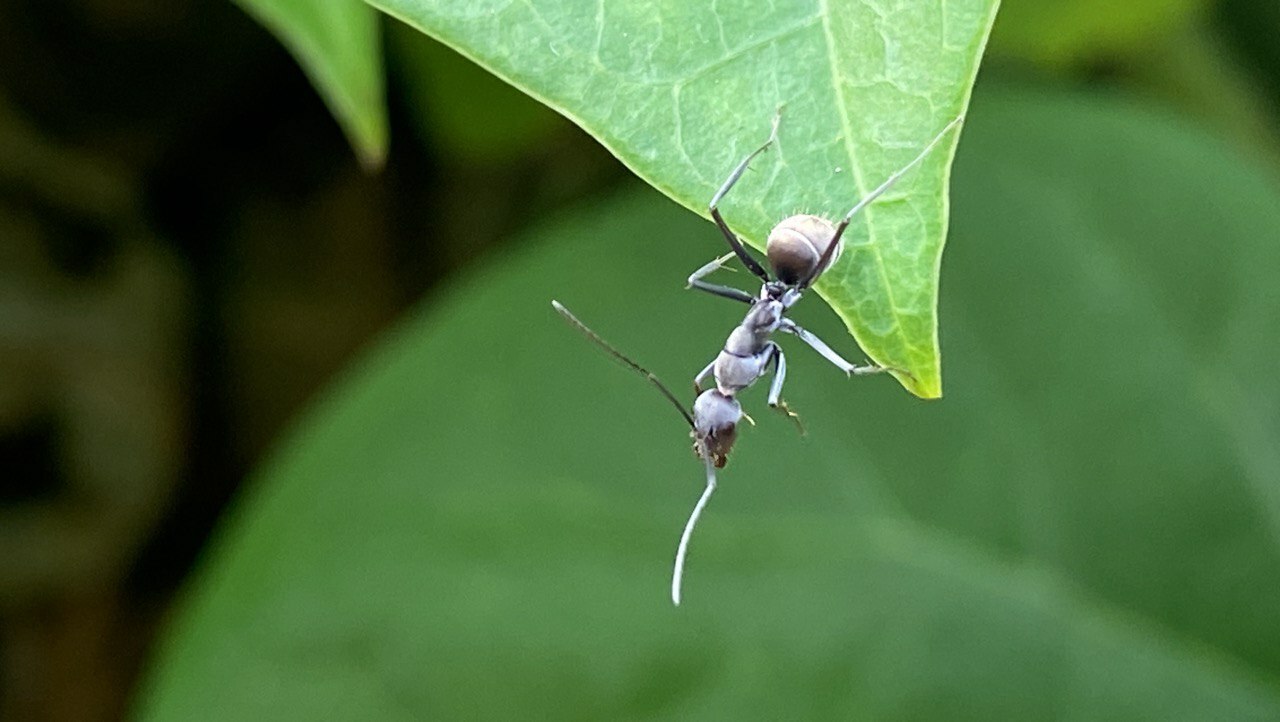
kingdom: Animalia
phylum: Arthropoda
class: Insecta
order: Hymenoptera
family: Formicidae
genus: Camponotus
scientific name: Camponotus parius
